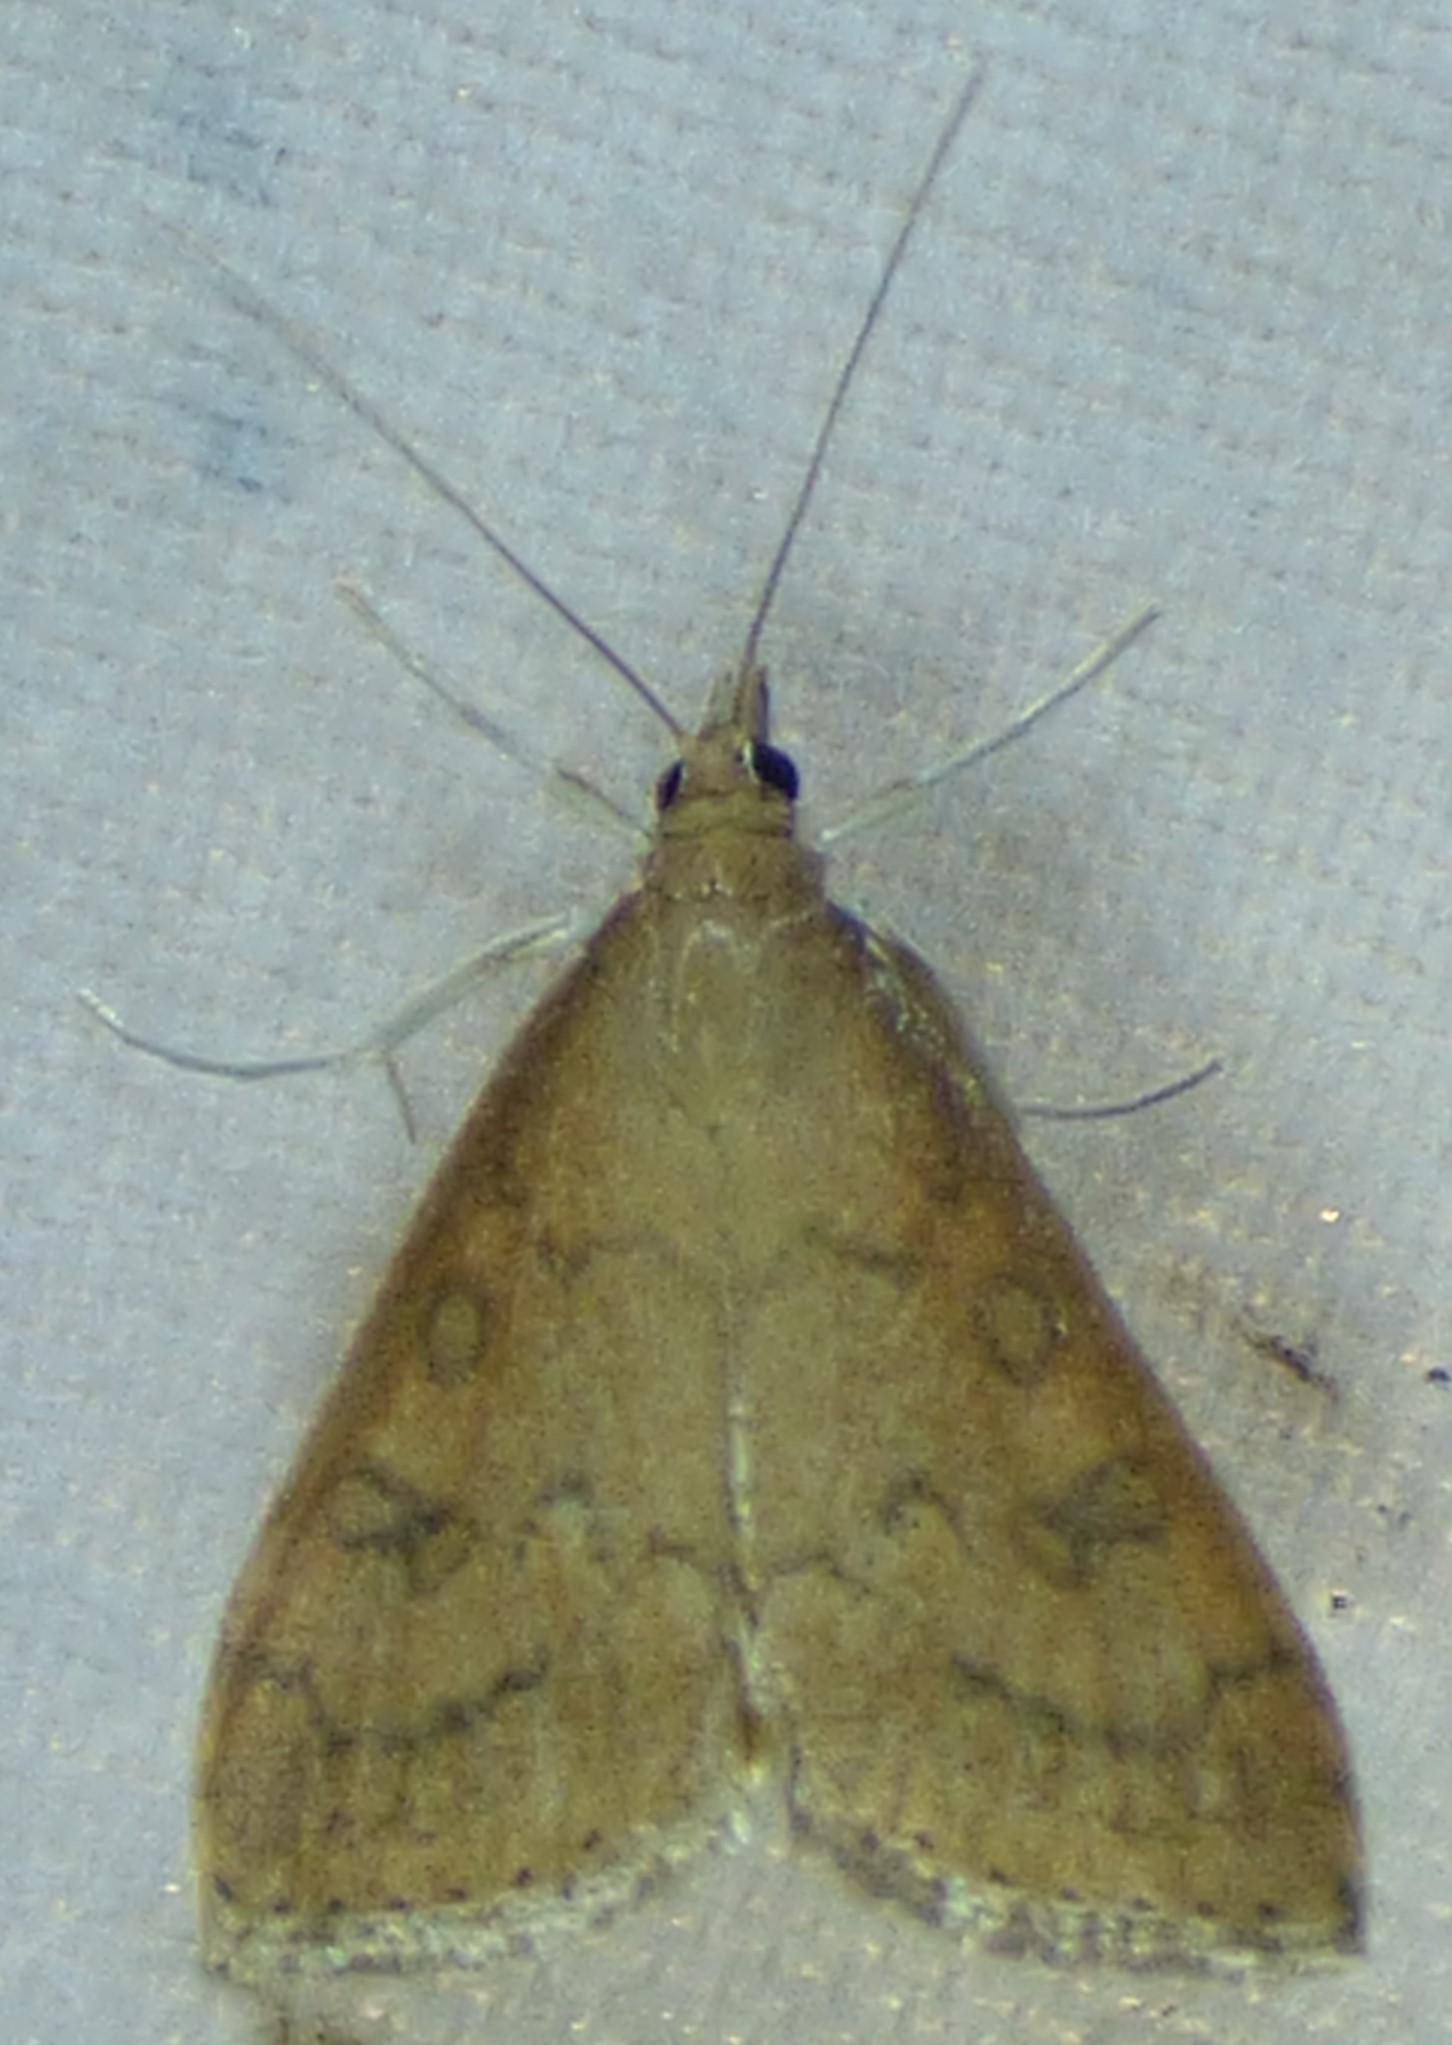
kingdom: Animalia
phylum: Arthropoda
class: Insecta
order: Lepidoptera
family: Crambidae
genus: Udea
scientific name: Udea rubigalis
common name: Celery leaftier moth
